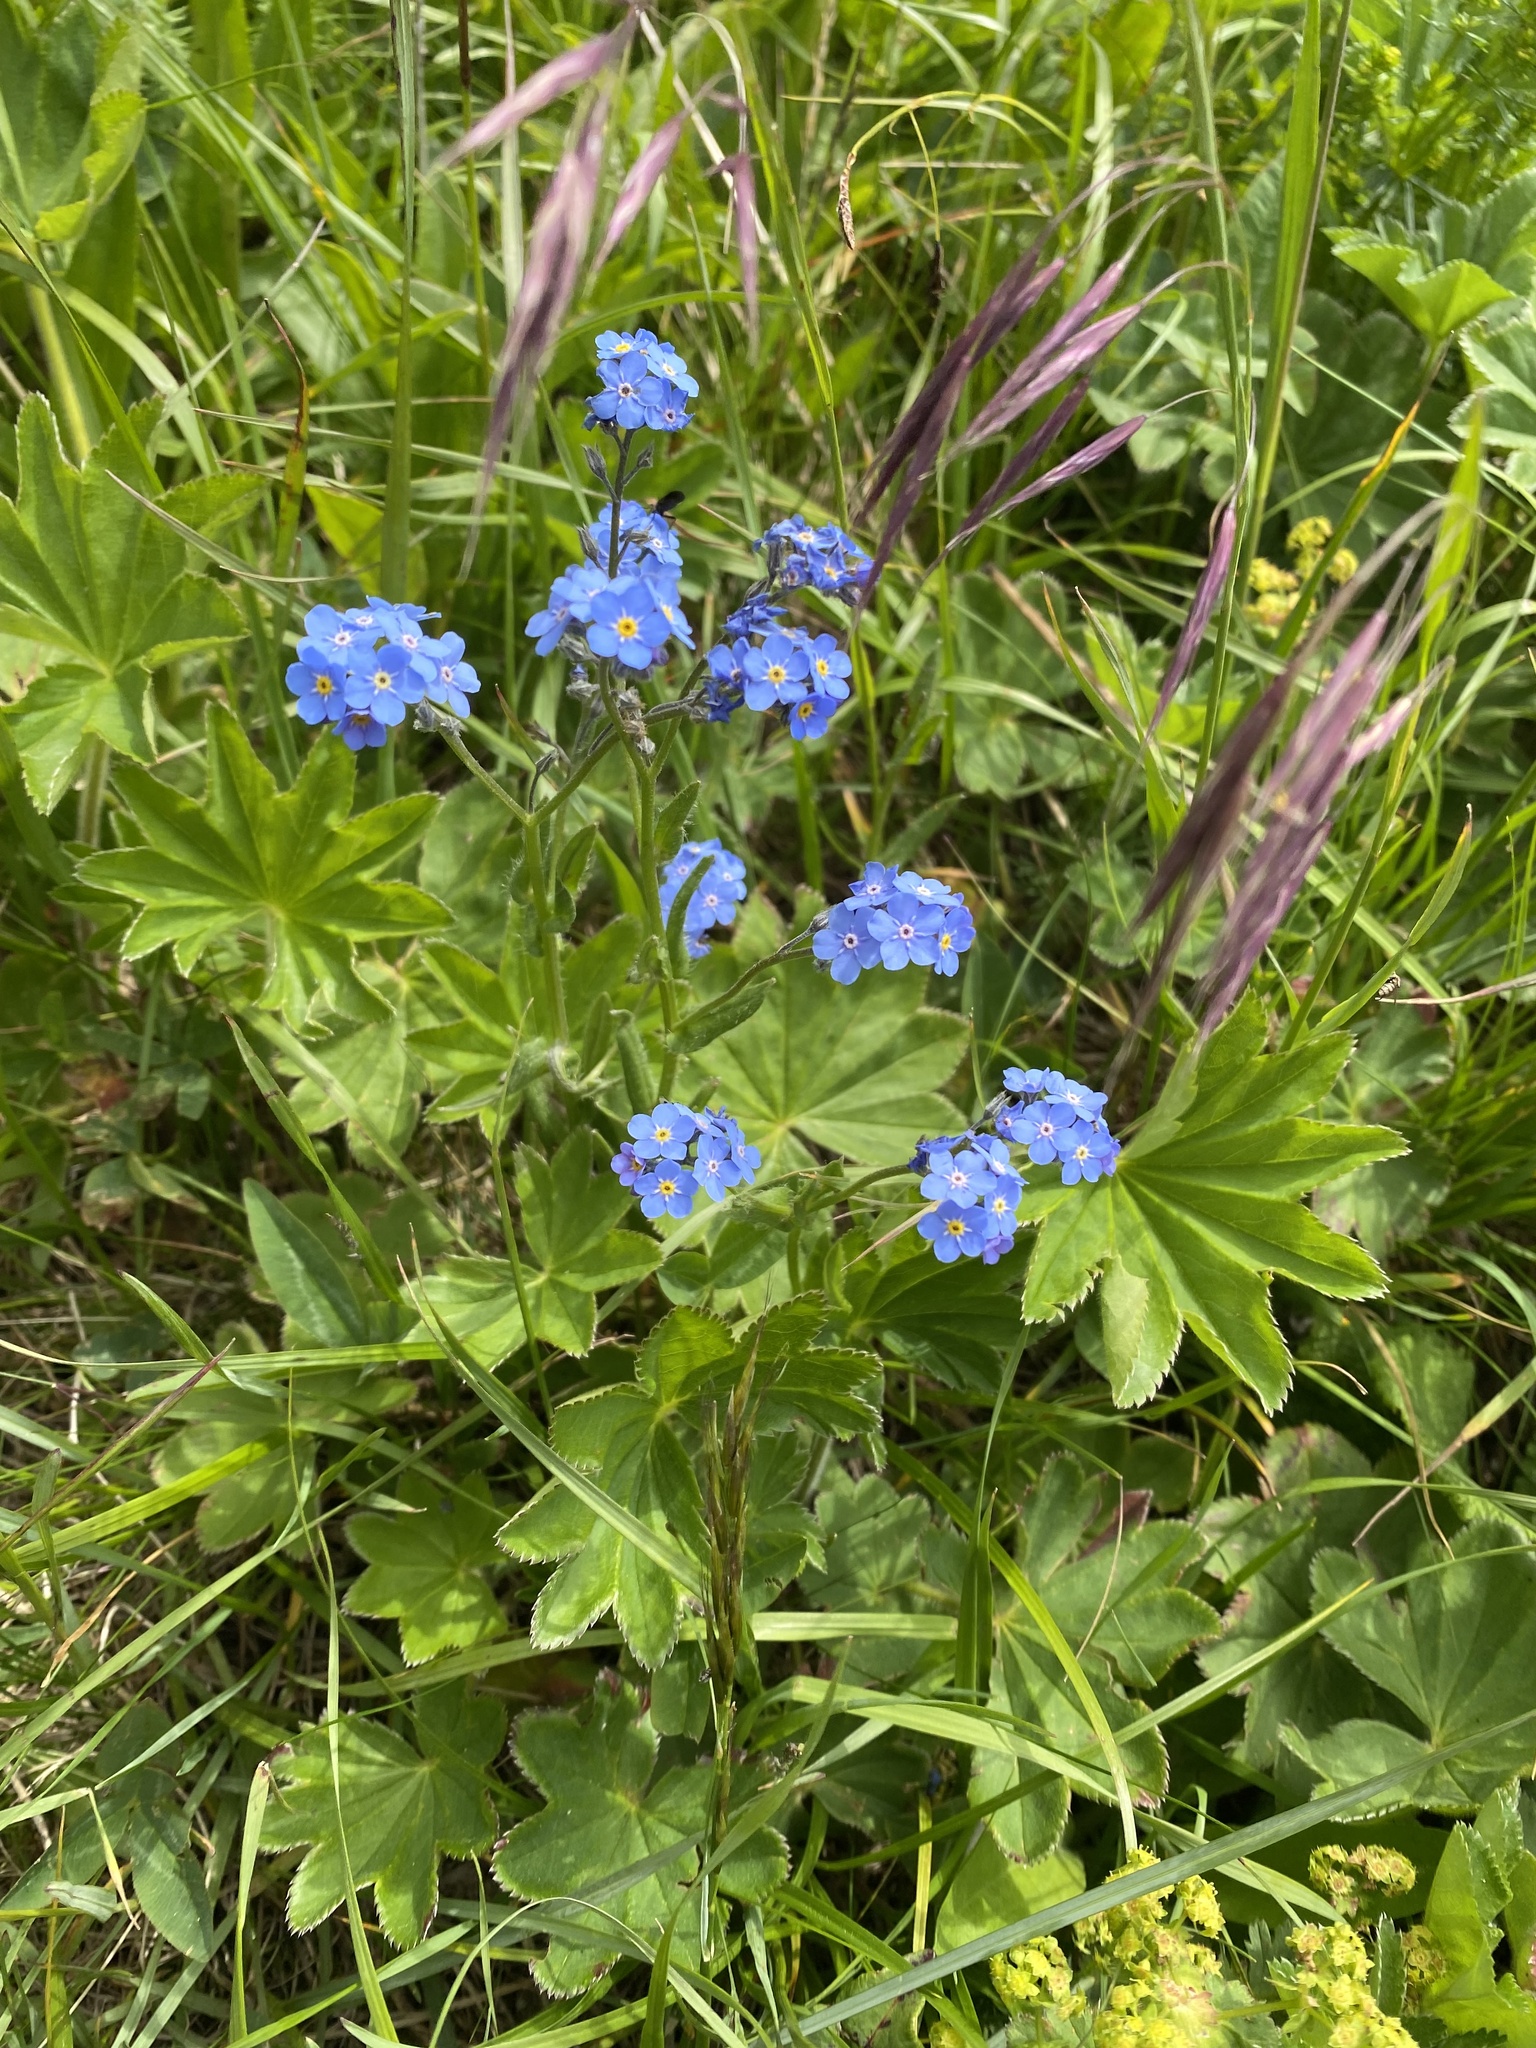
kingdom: Plantae
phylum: Tracheophyta
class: Magnoliopsida
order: Boraginales
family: Boraginaceae
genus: Myosotis
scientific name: Myosotis alpestris
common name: Alpine forget-me-not
